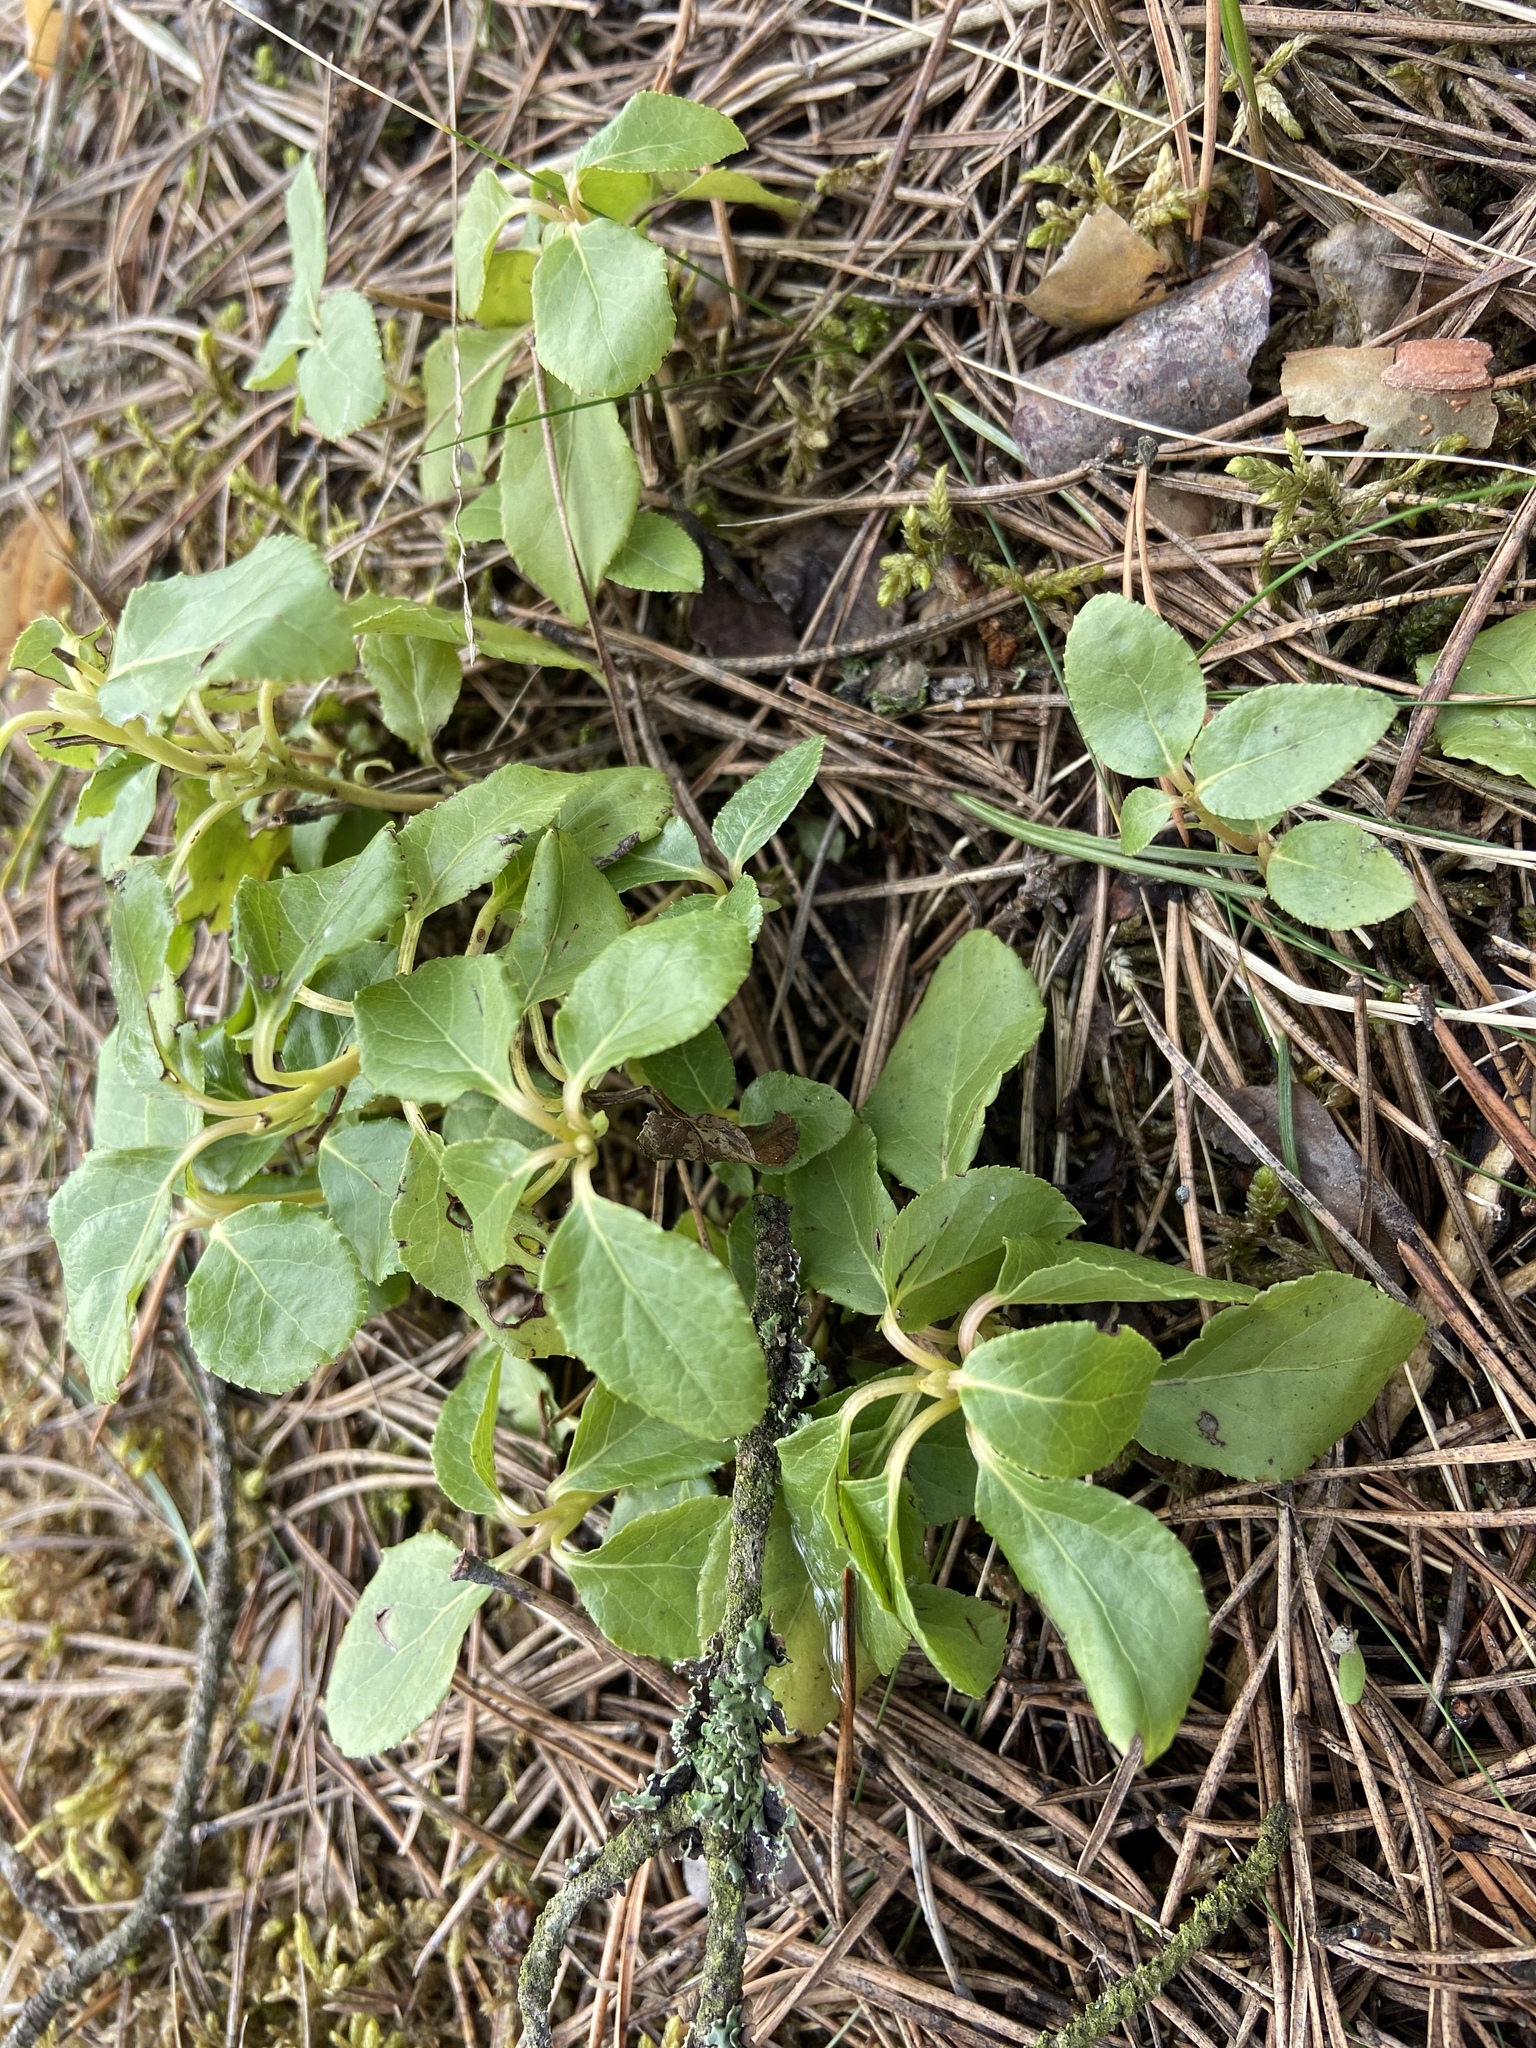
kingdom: Plantae
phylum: Tracheophyta
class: Magnoliopsida
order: Ericales
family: Ericaceae
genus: Orthilia
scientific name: Orthilia secunda
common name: One-sided orthilia
